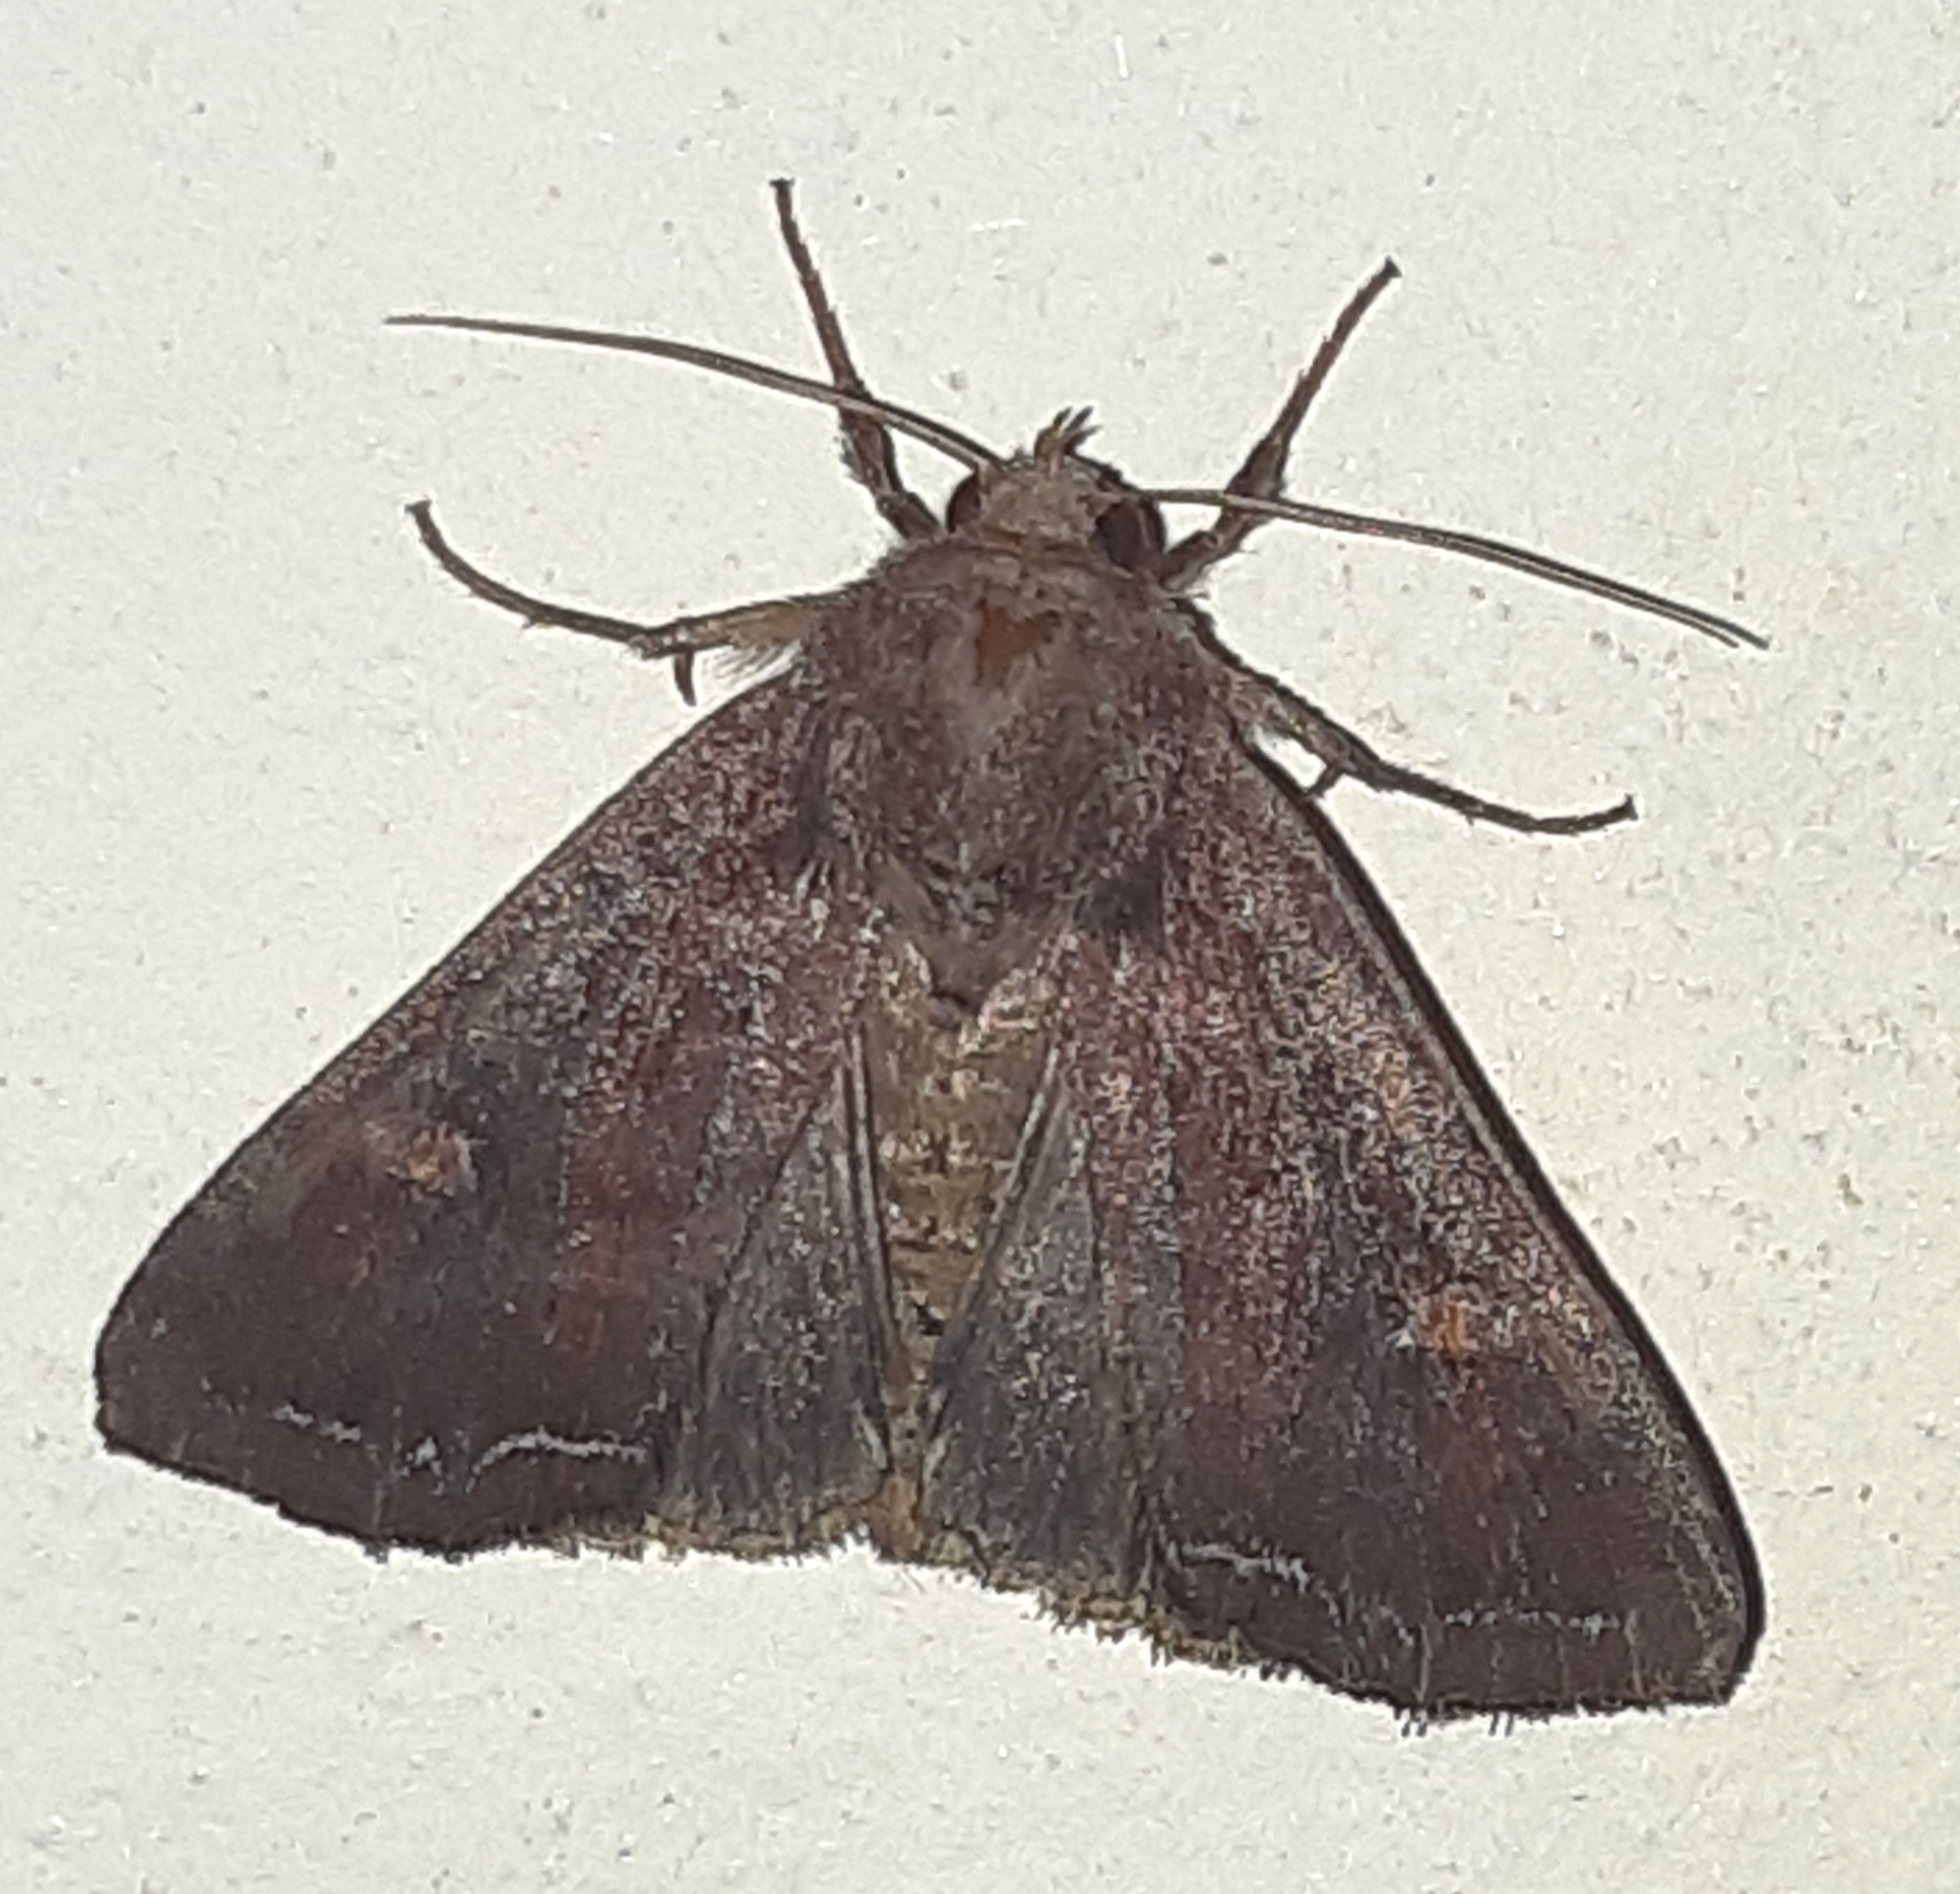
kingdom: Animalia
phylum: Arthropoda
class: Insecta
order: Lepidoptera
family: Noctuidae
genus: Lacanobia
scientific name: Lacanobia oleracea
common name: Bright-line brown-eye
